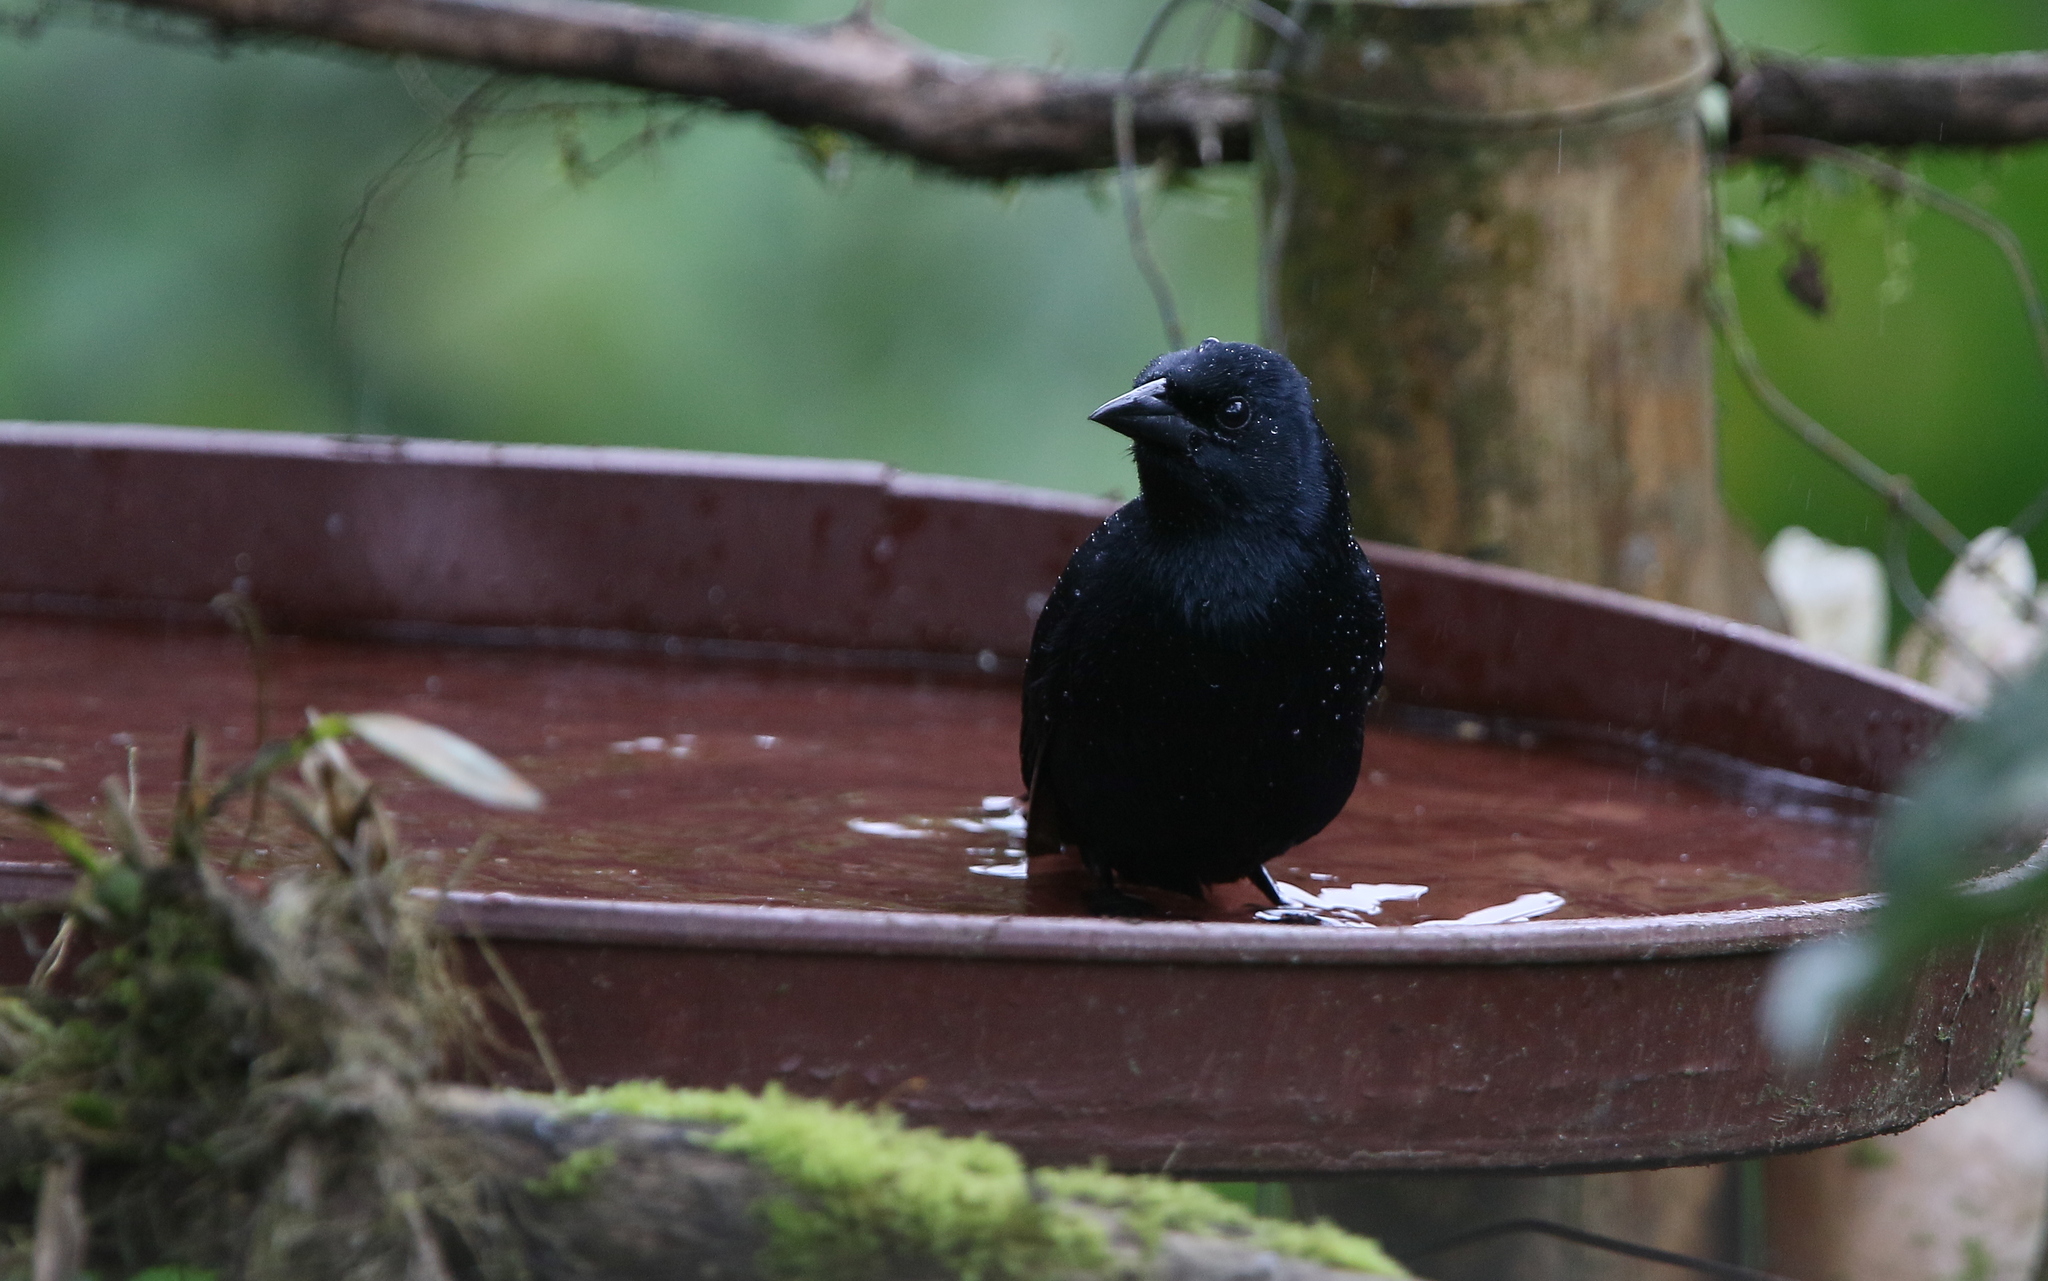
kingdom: Animalia
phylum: Chordata
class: Aves
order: Passeriformes
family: Icteridae
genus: Dives
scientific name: Dives warczewiczi
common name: Scrub blackbird
